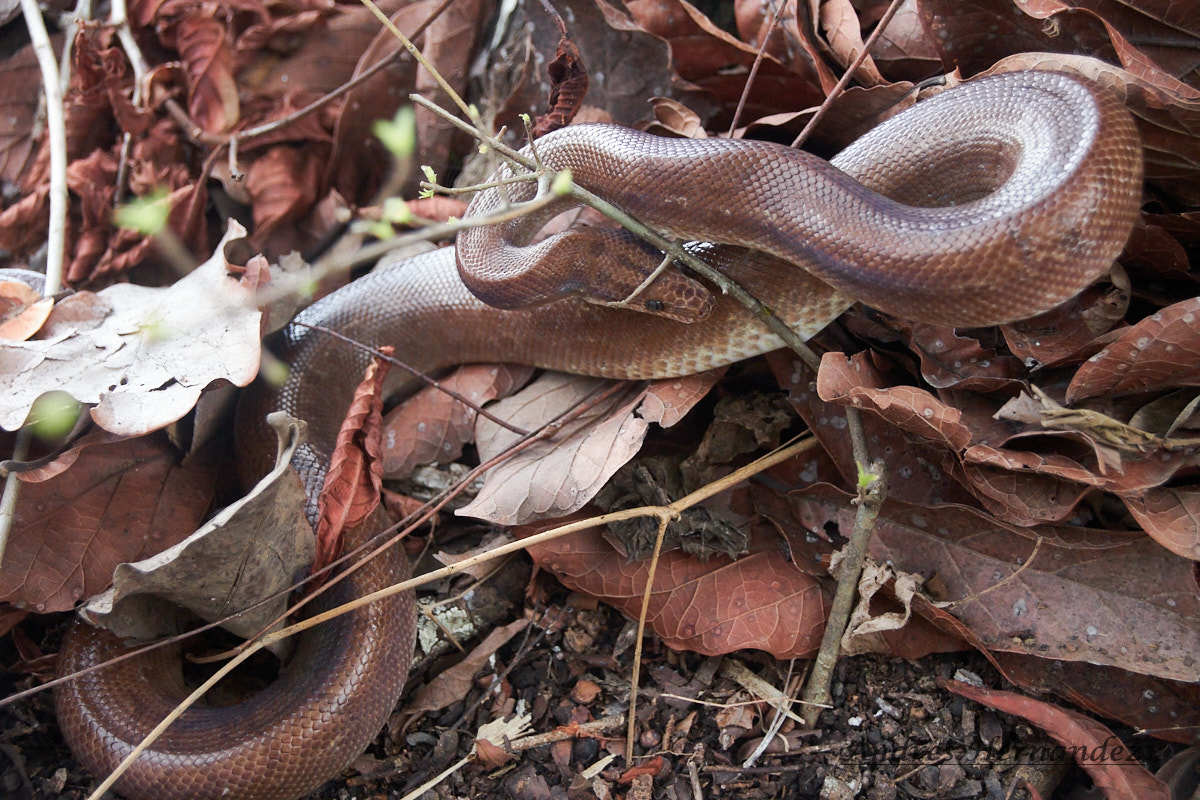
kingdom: Animalia
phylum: Chordata
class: Squamata
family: Boidae
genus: Epicrates
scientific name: Epicrates maurus
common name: Brown rainbow boa
